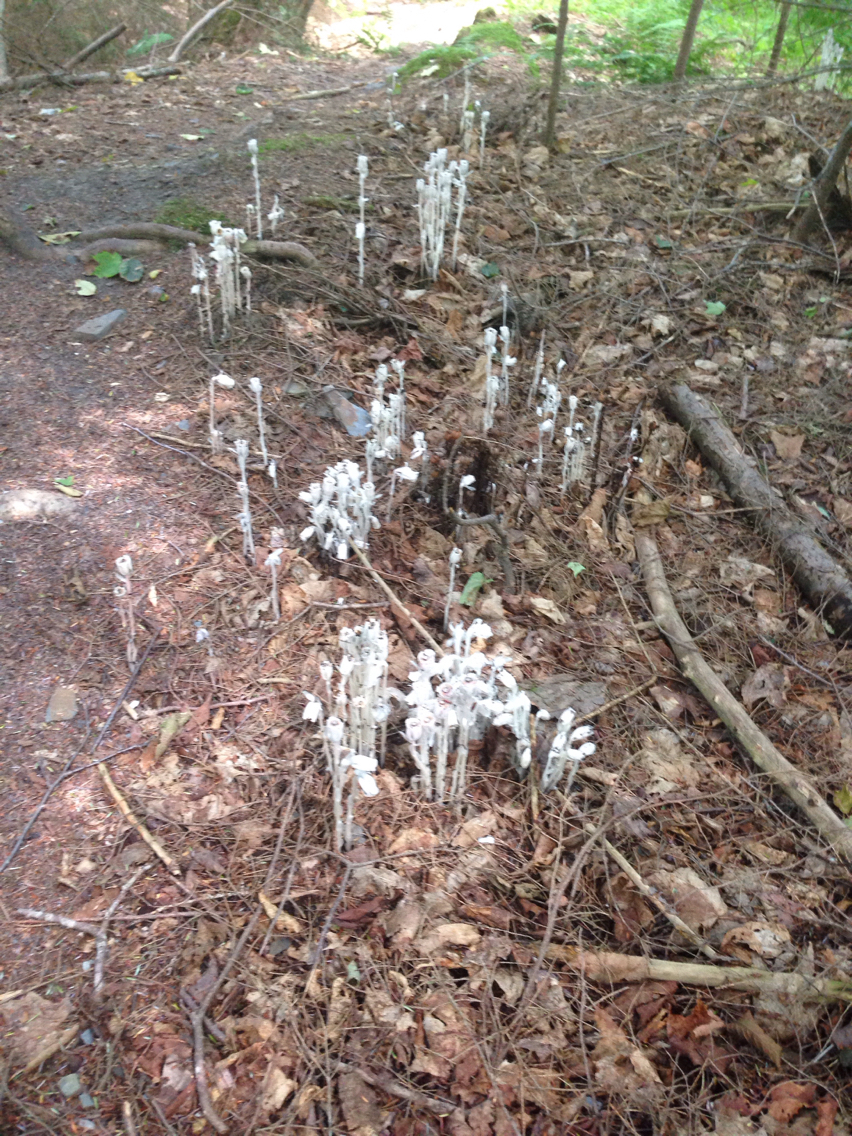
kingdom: Plantae
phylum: Tracheophyta
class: Magnoliopsida
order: Ericales
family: Ericaceae
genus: Monotropa
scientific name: Monotropa uniflora
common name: Convulsion root
